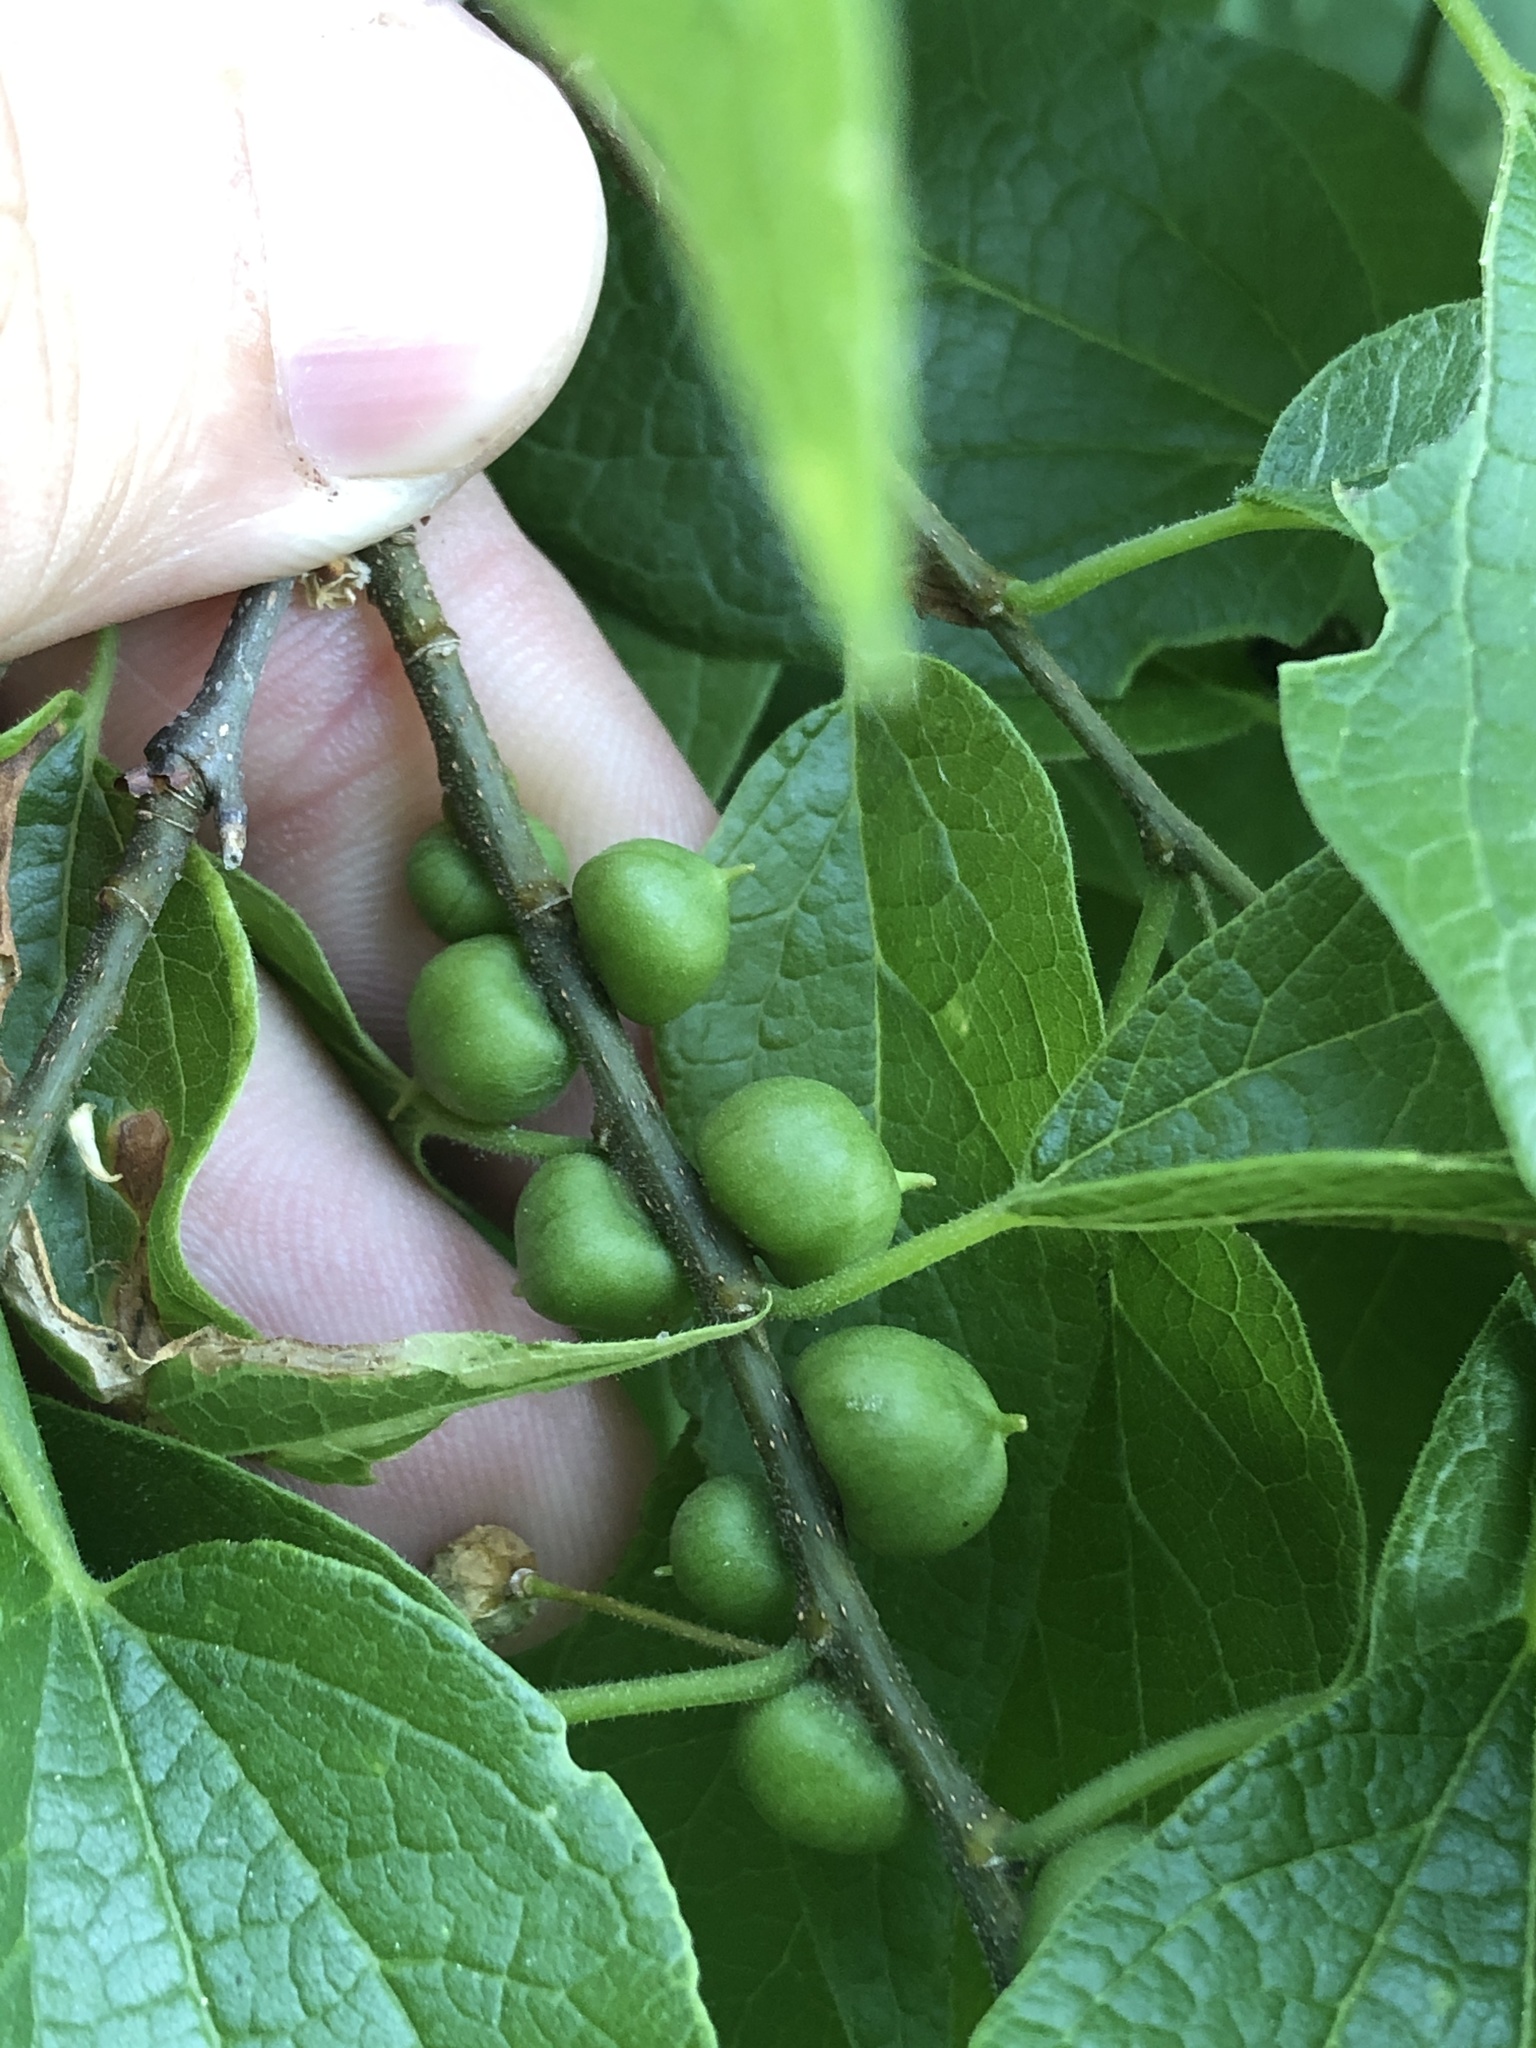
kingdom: Animalia
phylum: Arthropoda
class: Insecta
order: Diptera
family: Cecidomyiidae
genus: Celticecis
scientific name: Celticecis connata
